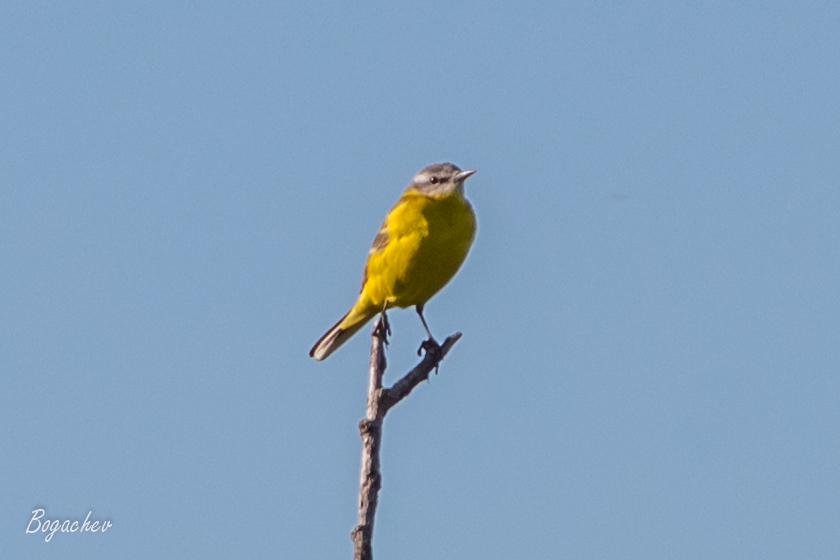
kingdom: Animalia
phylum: Chordata
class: Aves
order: Passeriformes
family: Motacillidae
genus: Motacilla
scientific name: Motacilla flava
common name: Western yellow wagtail
